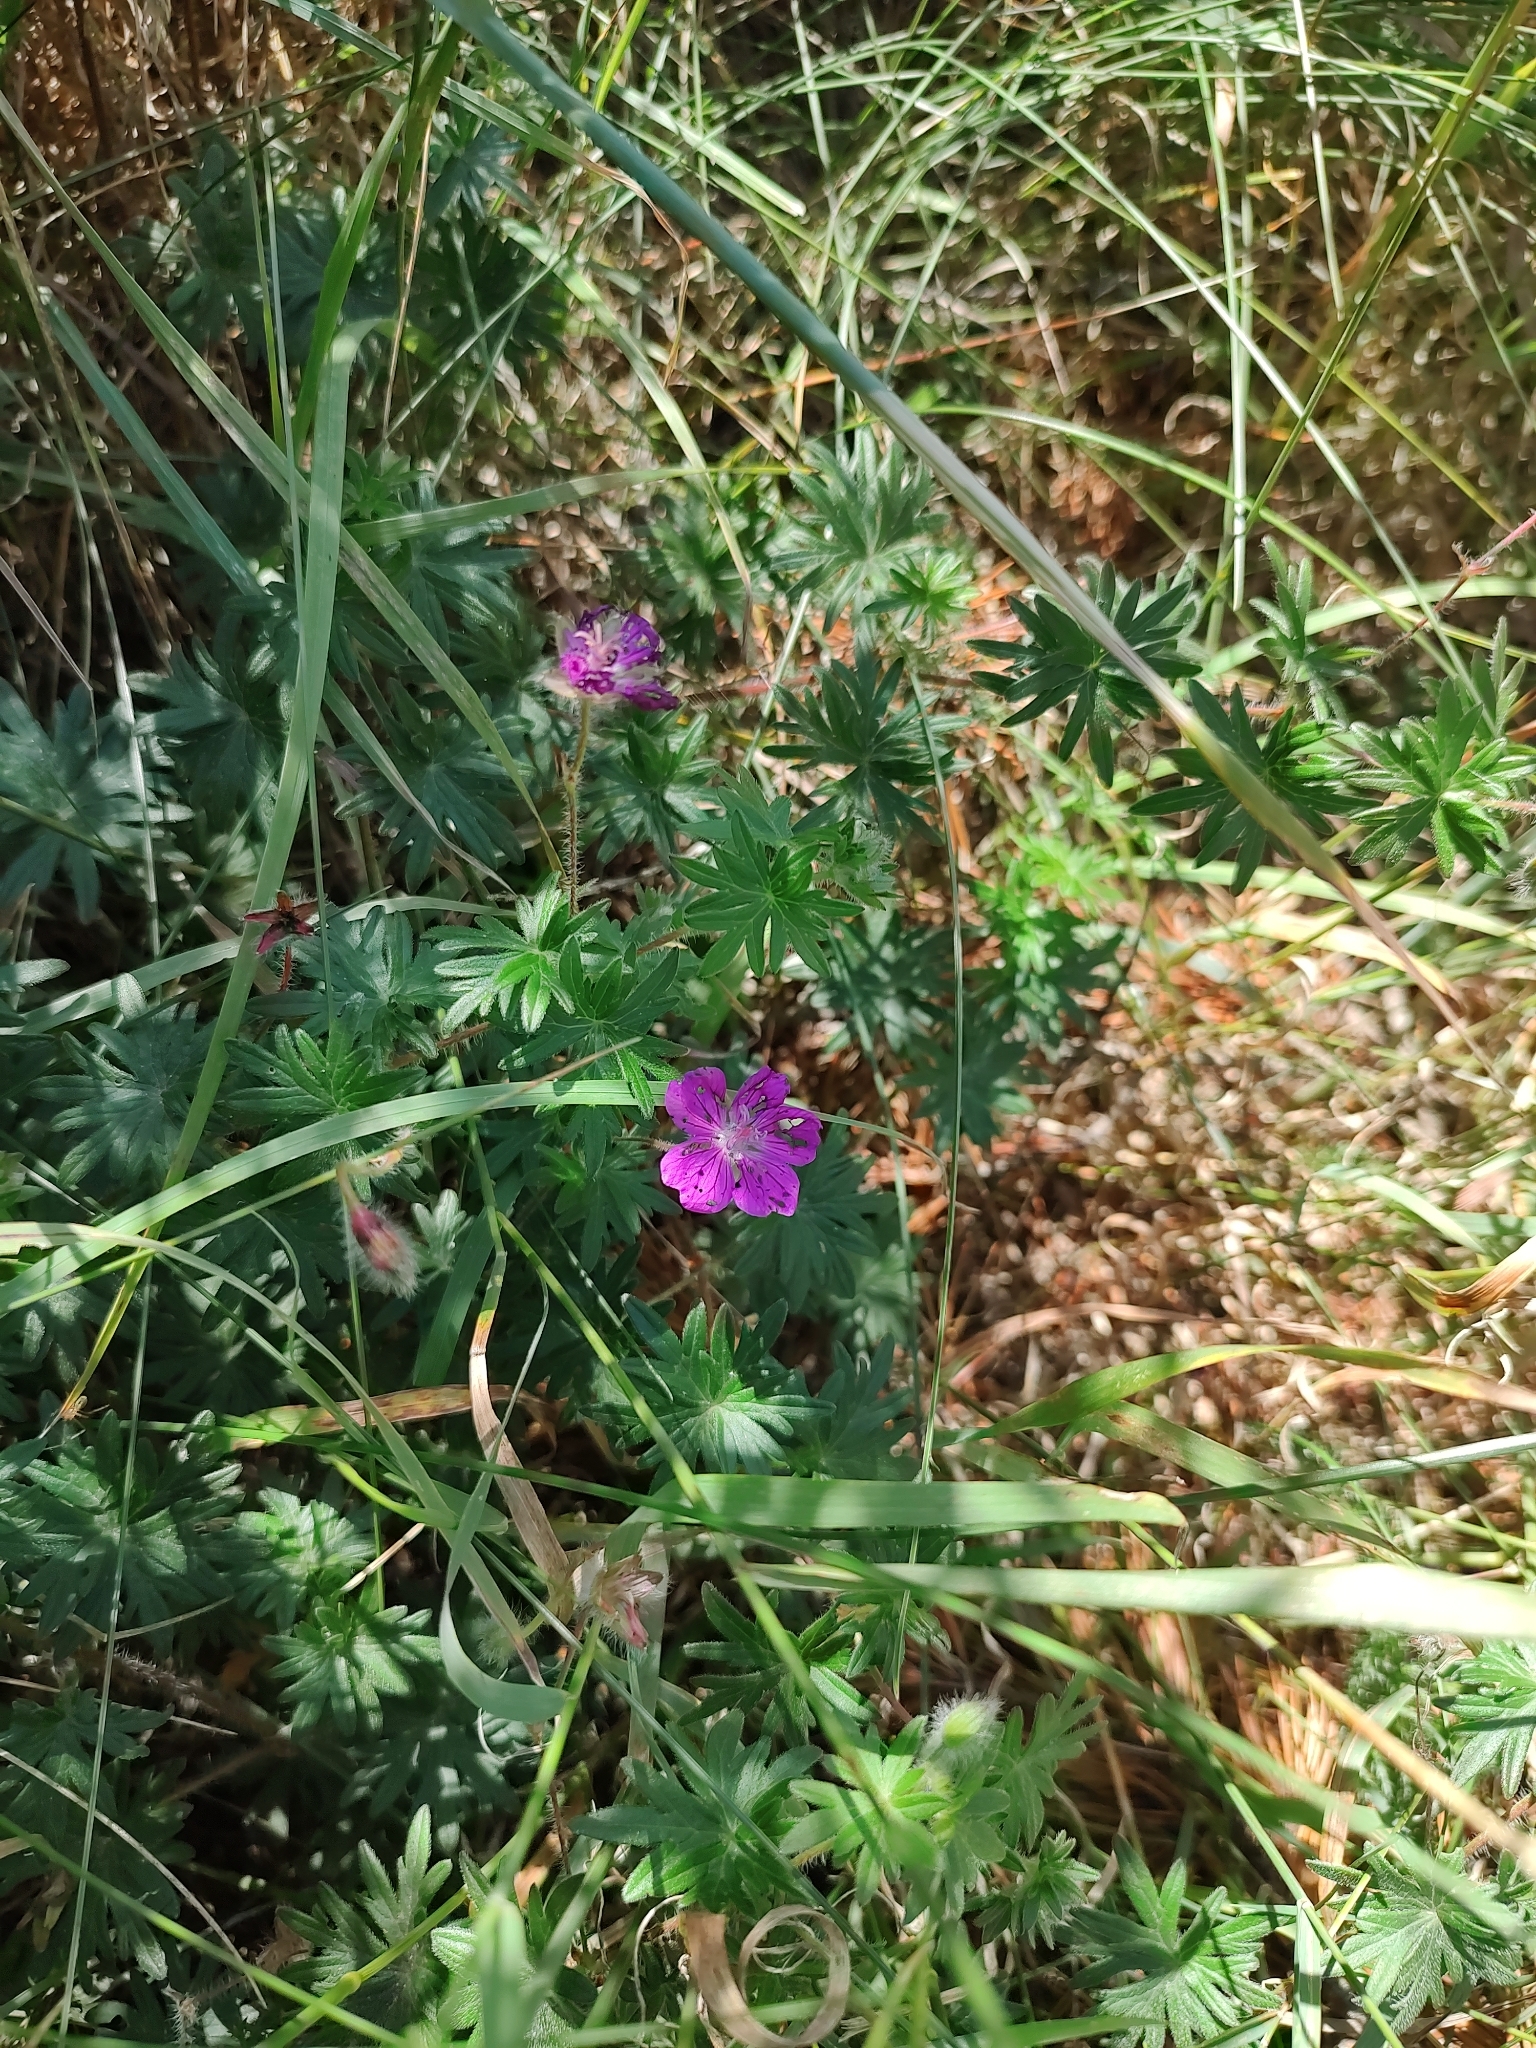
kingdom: Plantae
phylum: Tracheophyta
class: Magnoliopsida
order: Geraniales
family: Geraniaceae
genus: Geranium
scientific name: Geranium sanguineum
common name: Bloody crane's-bill
